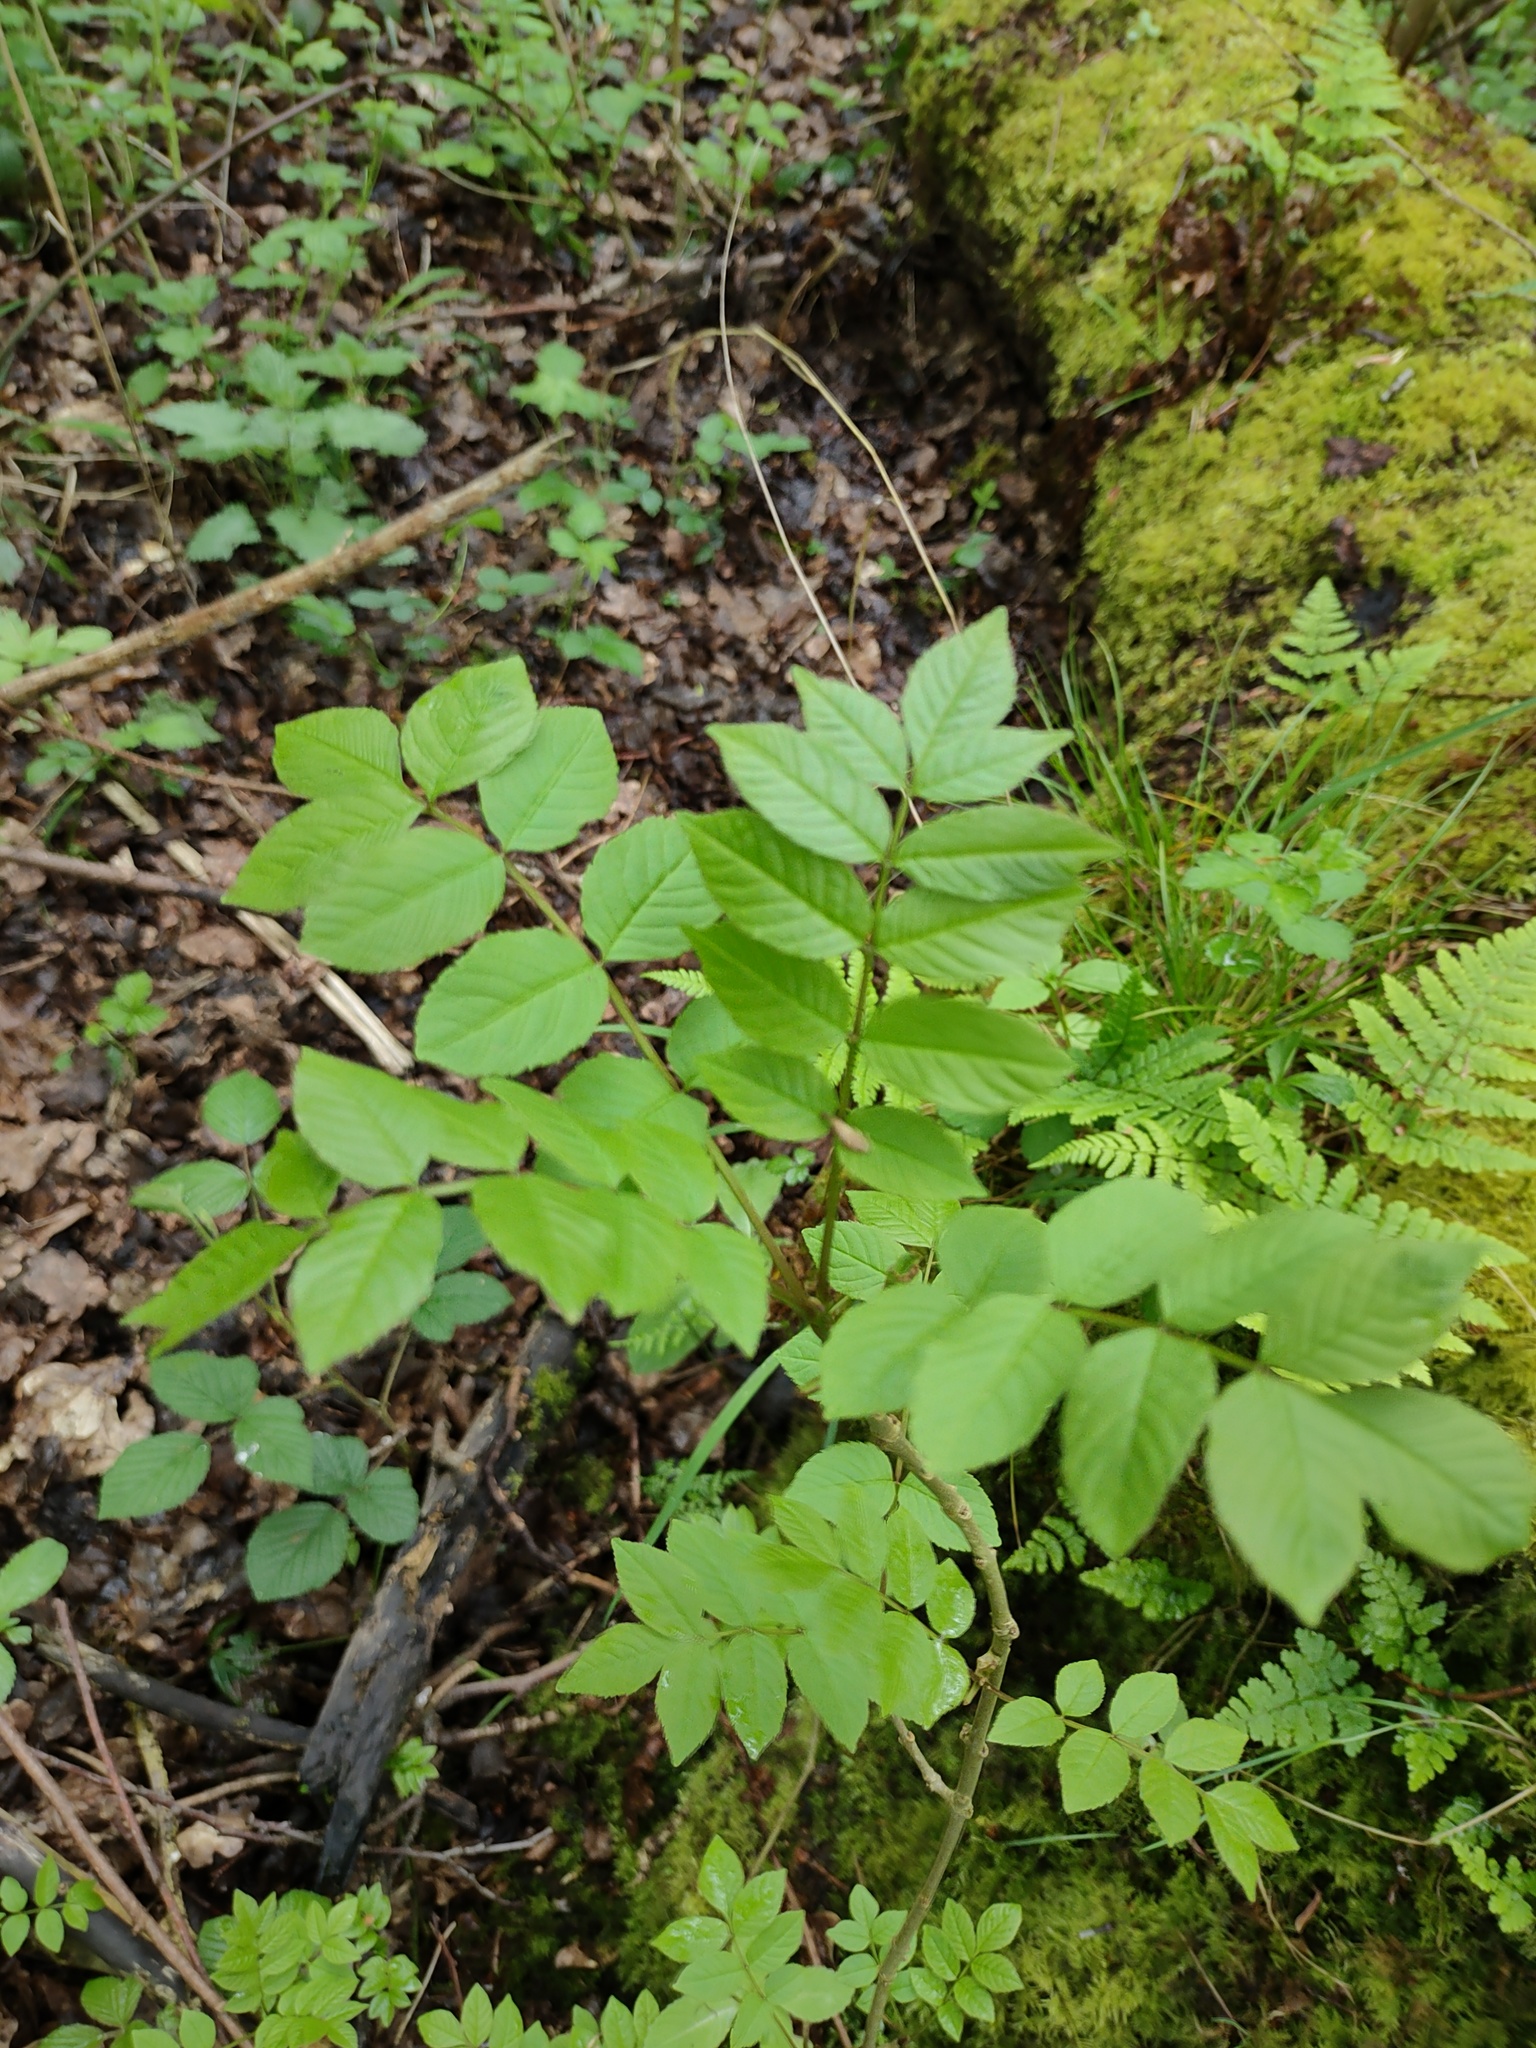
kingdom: Plantae
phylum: Tracheophyta
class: Magnoliopsida
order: Lamiales
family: Oleaceae
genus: Fraxinus
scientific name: Fraxinus excelsior
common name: European ash
